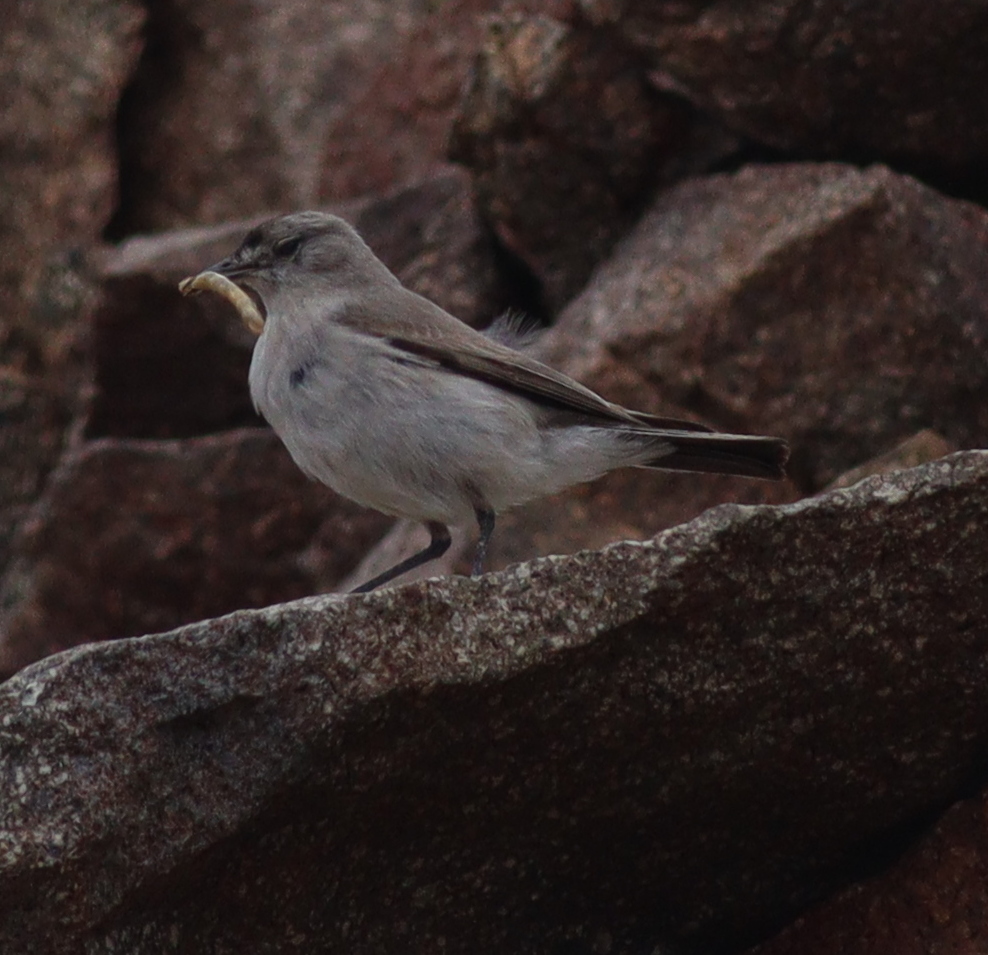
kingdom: Animalia
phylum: Chordata
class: Aves
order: Passeriformes
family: Tyrannidae
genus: Muscisaxicola
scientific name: Muscisaxicola frontalis
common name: Black-fronted ground tyrant
